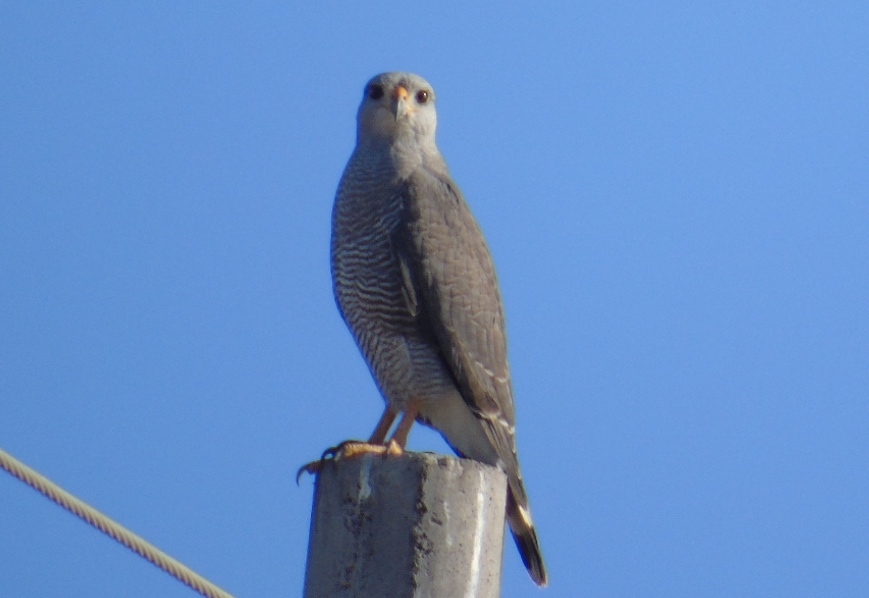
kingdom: Animalia
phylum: Chordata
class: Aves
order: Accipitriformes
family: Accipitridae
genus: Buteo
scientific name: Buteo nitidus
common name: Grey-lined hawk
